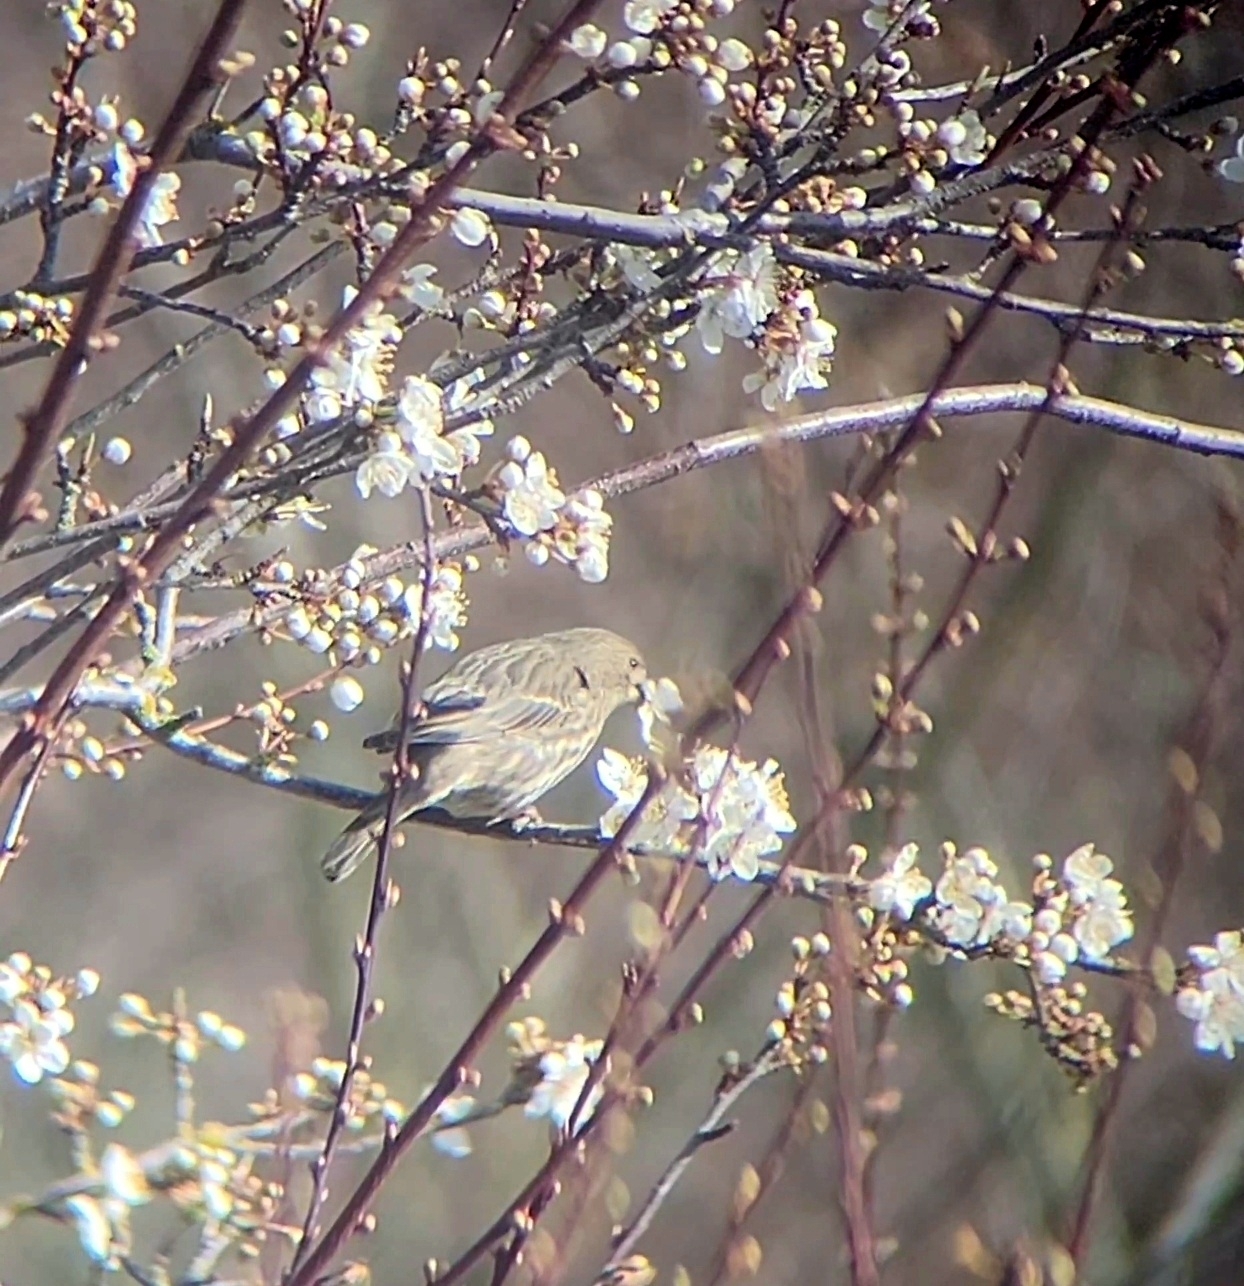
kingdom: Animalia
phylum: Chordata
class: Aves
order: Passeriformes
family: Fringillidae
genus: Haemorhous
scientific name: Haemorhous mexicanus
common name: House finch
